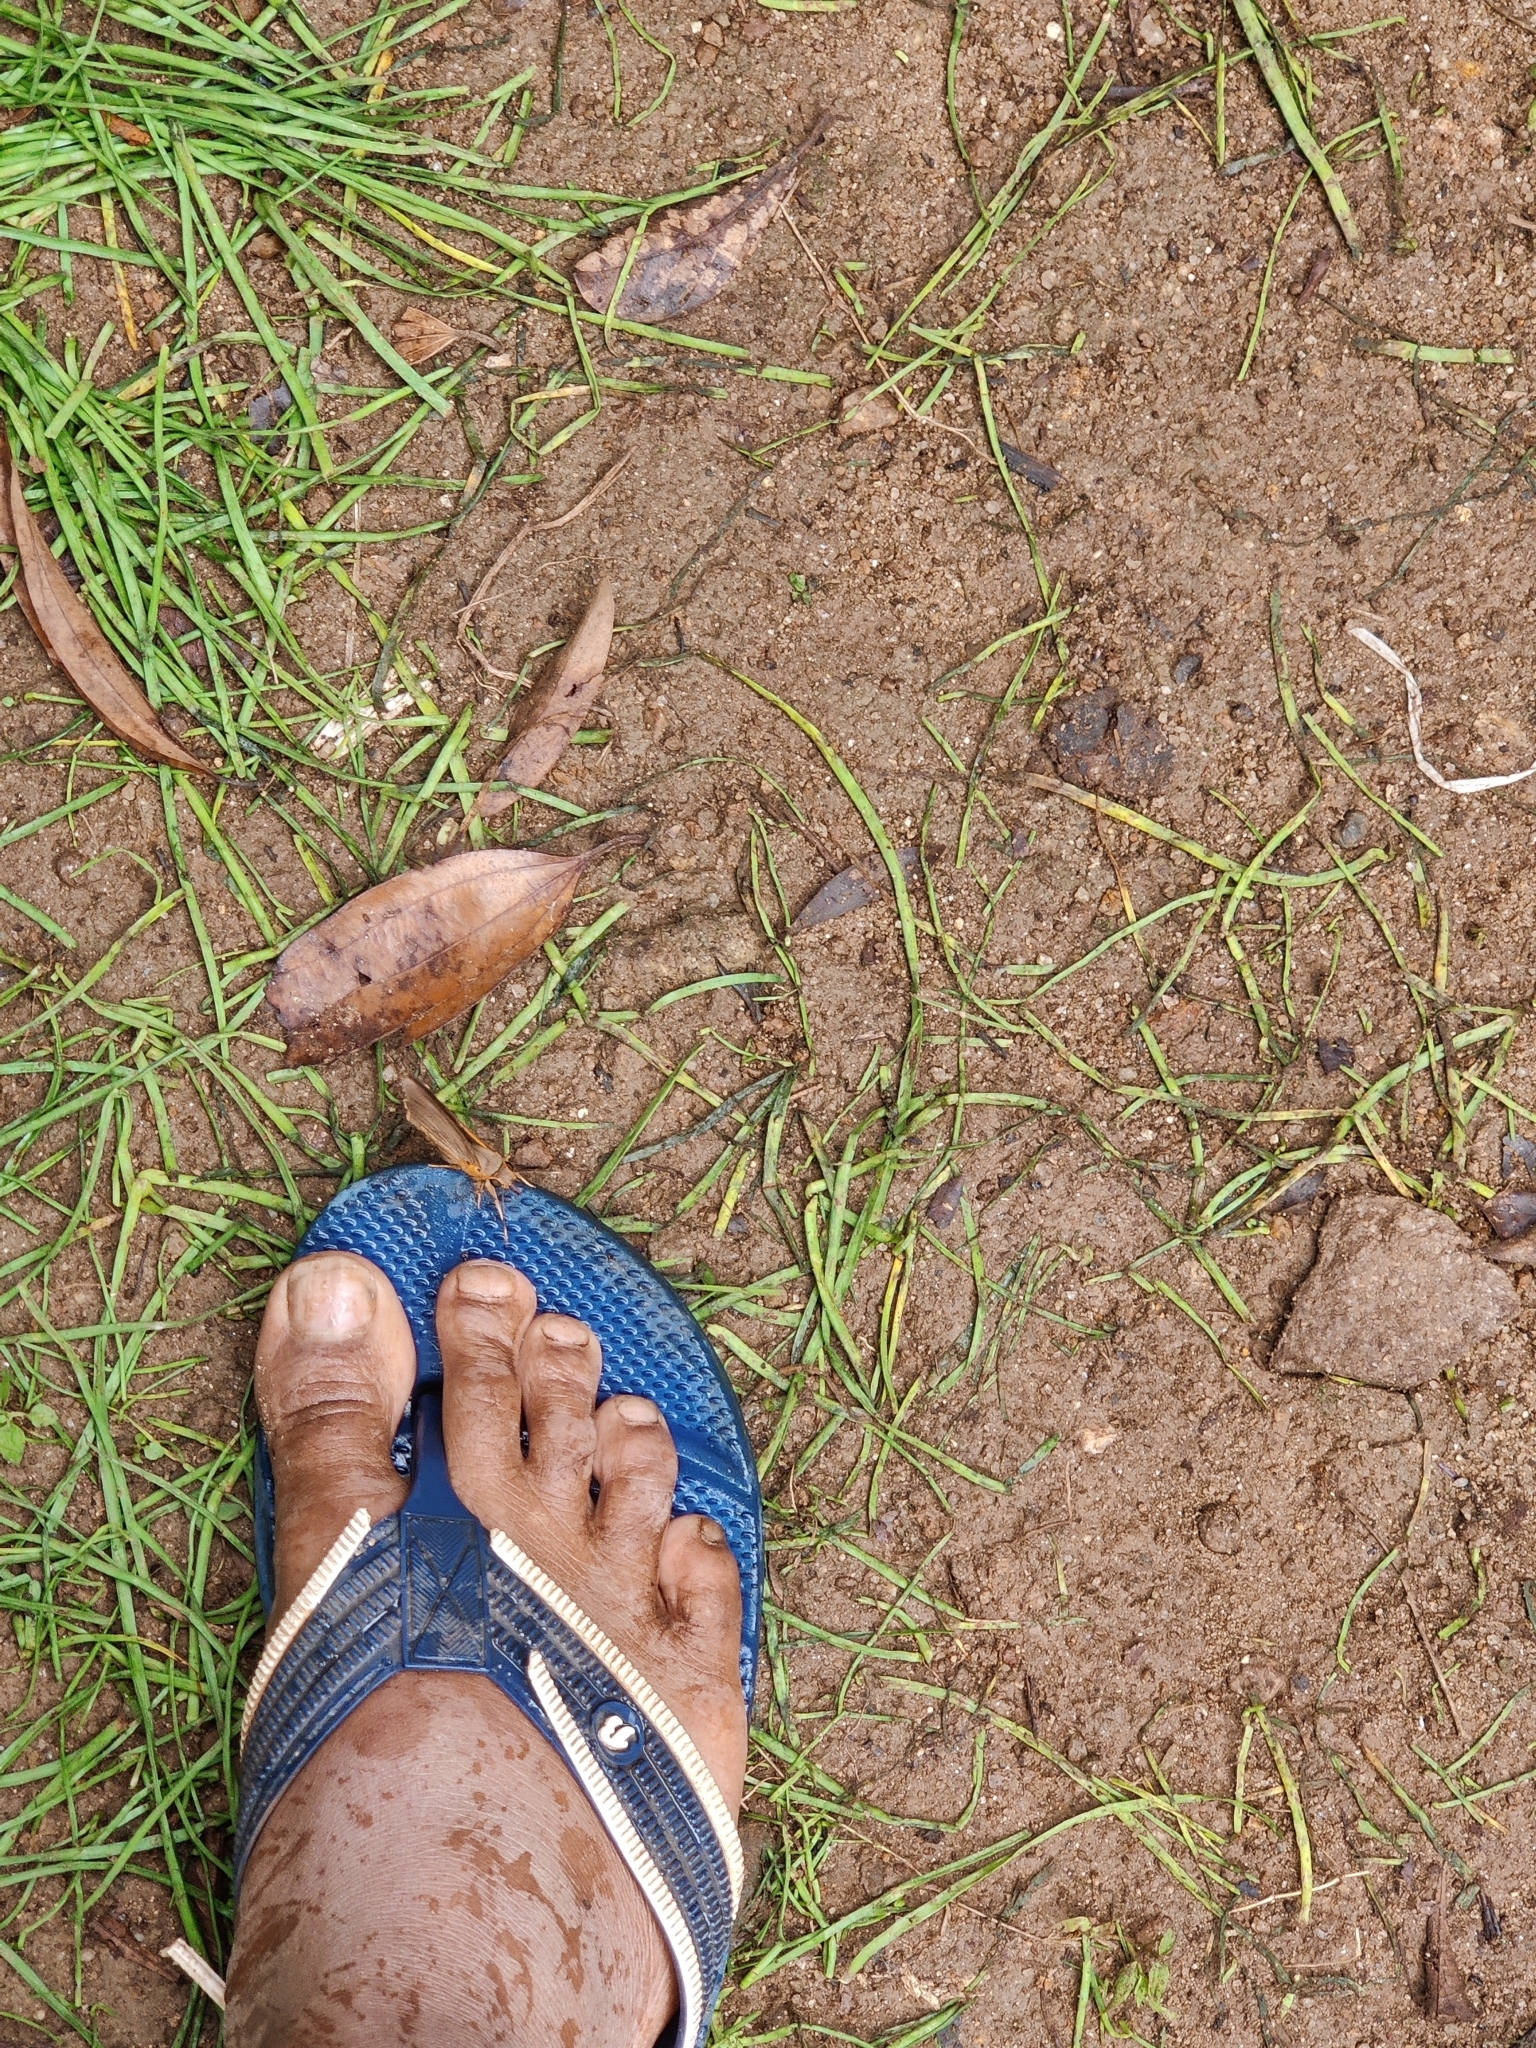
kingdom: Animalia
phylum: Arthropoda
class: Insecta
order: Lepidoptera
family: Hesperiidae
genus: Bibasis
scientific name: Bibasis jaina
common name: Common orange awlet
